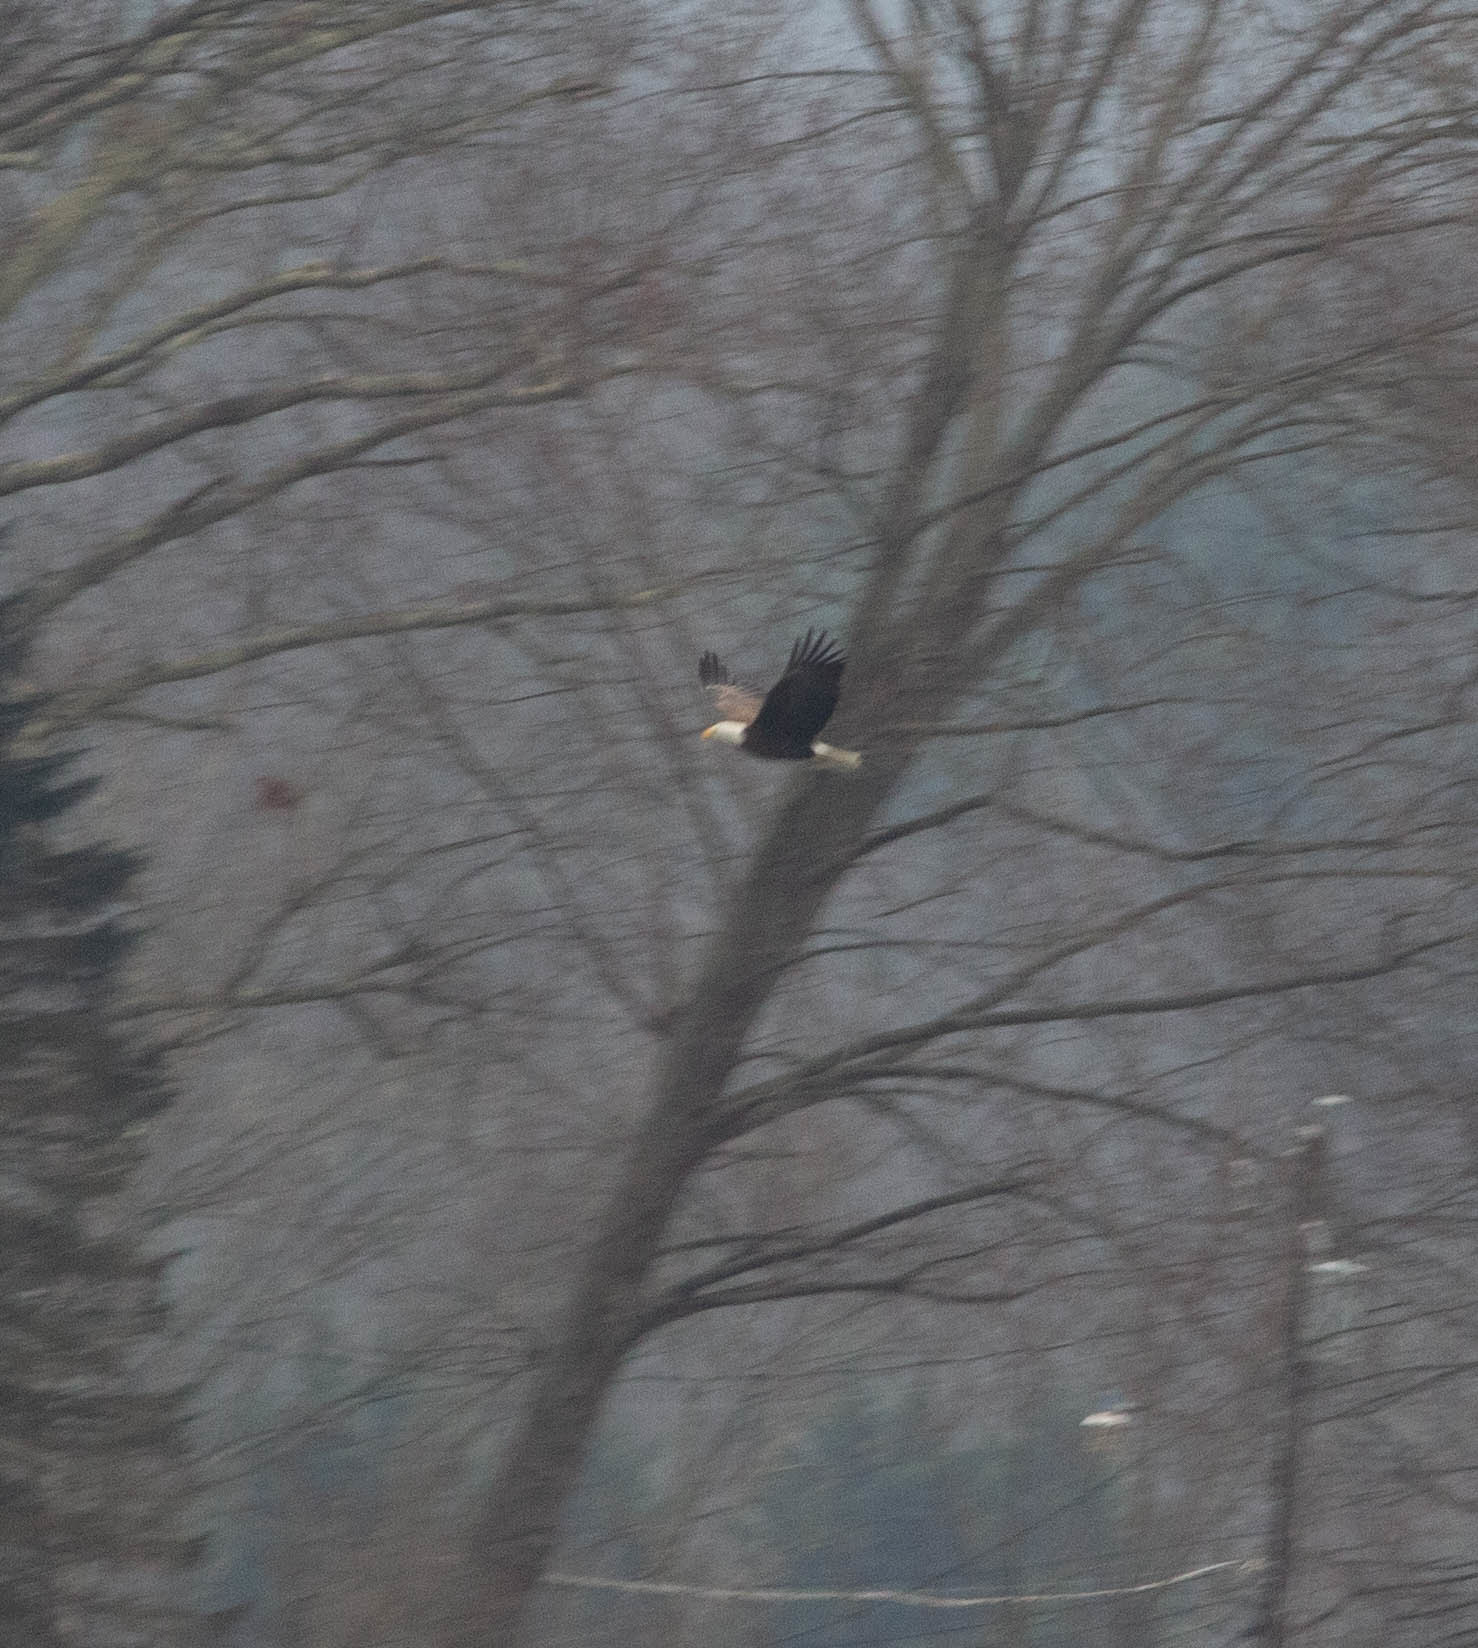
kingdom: Animalia
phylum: Chordata
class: Aves
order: Accipitriformes
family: Accipitridae
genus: Haliaeetus
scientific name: Haliaeetus leucocephalus
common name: Bald eagle
